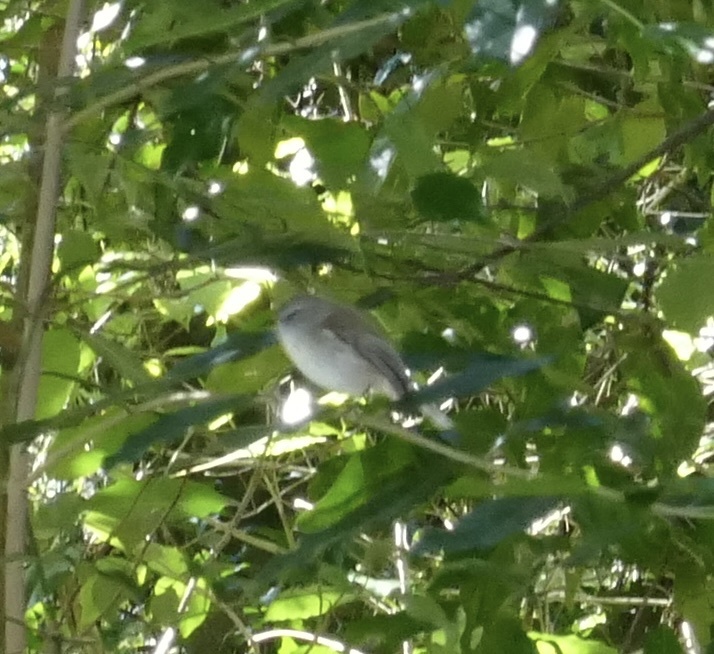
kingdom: Animalia
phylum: Chordata
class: Aves
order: Passeriformes
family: Acanthizidae
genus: Gerygone
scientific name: Gerygone mouki
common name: Brown gerygone
